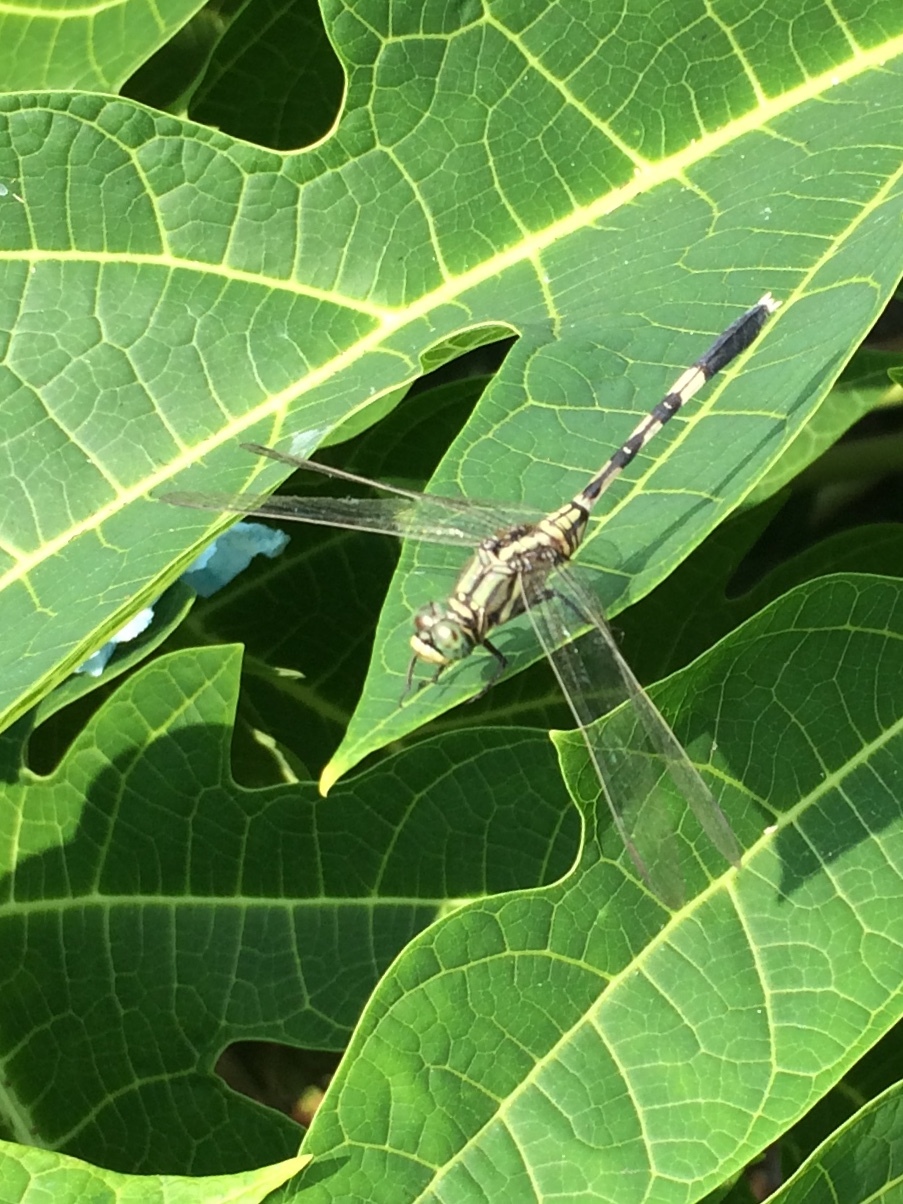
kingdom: Animalia
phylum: Arthropoda
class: Insecta
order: Odonata
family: Libellulidae
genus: Orthetrum
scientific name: Orthetrum sabina
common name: Slender skimmer
